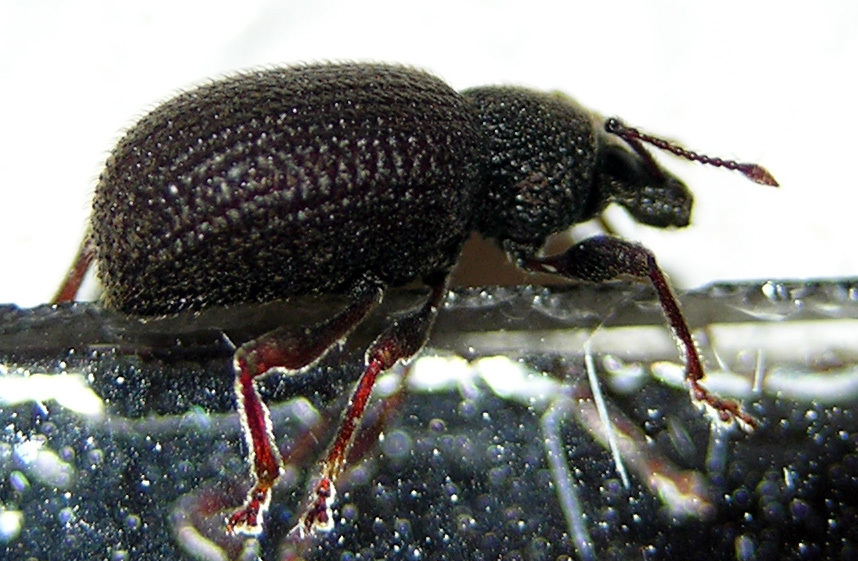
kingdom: Animalia
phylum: Arthropoda
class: Insecta
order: Coleoptera
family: Curculionidae
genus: Otiorhynchus
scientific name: Otiorhynchus rugosostriatus
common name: Weevil
